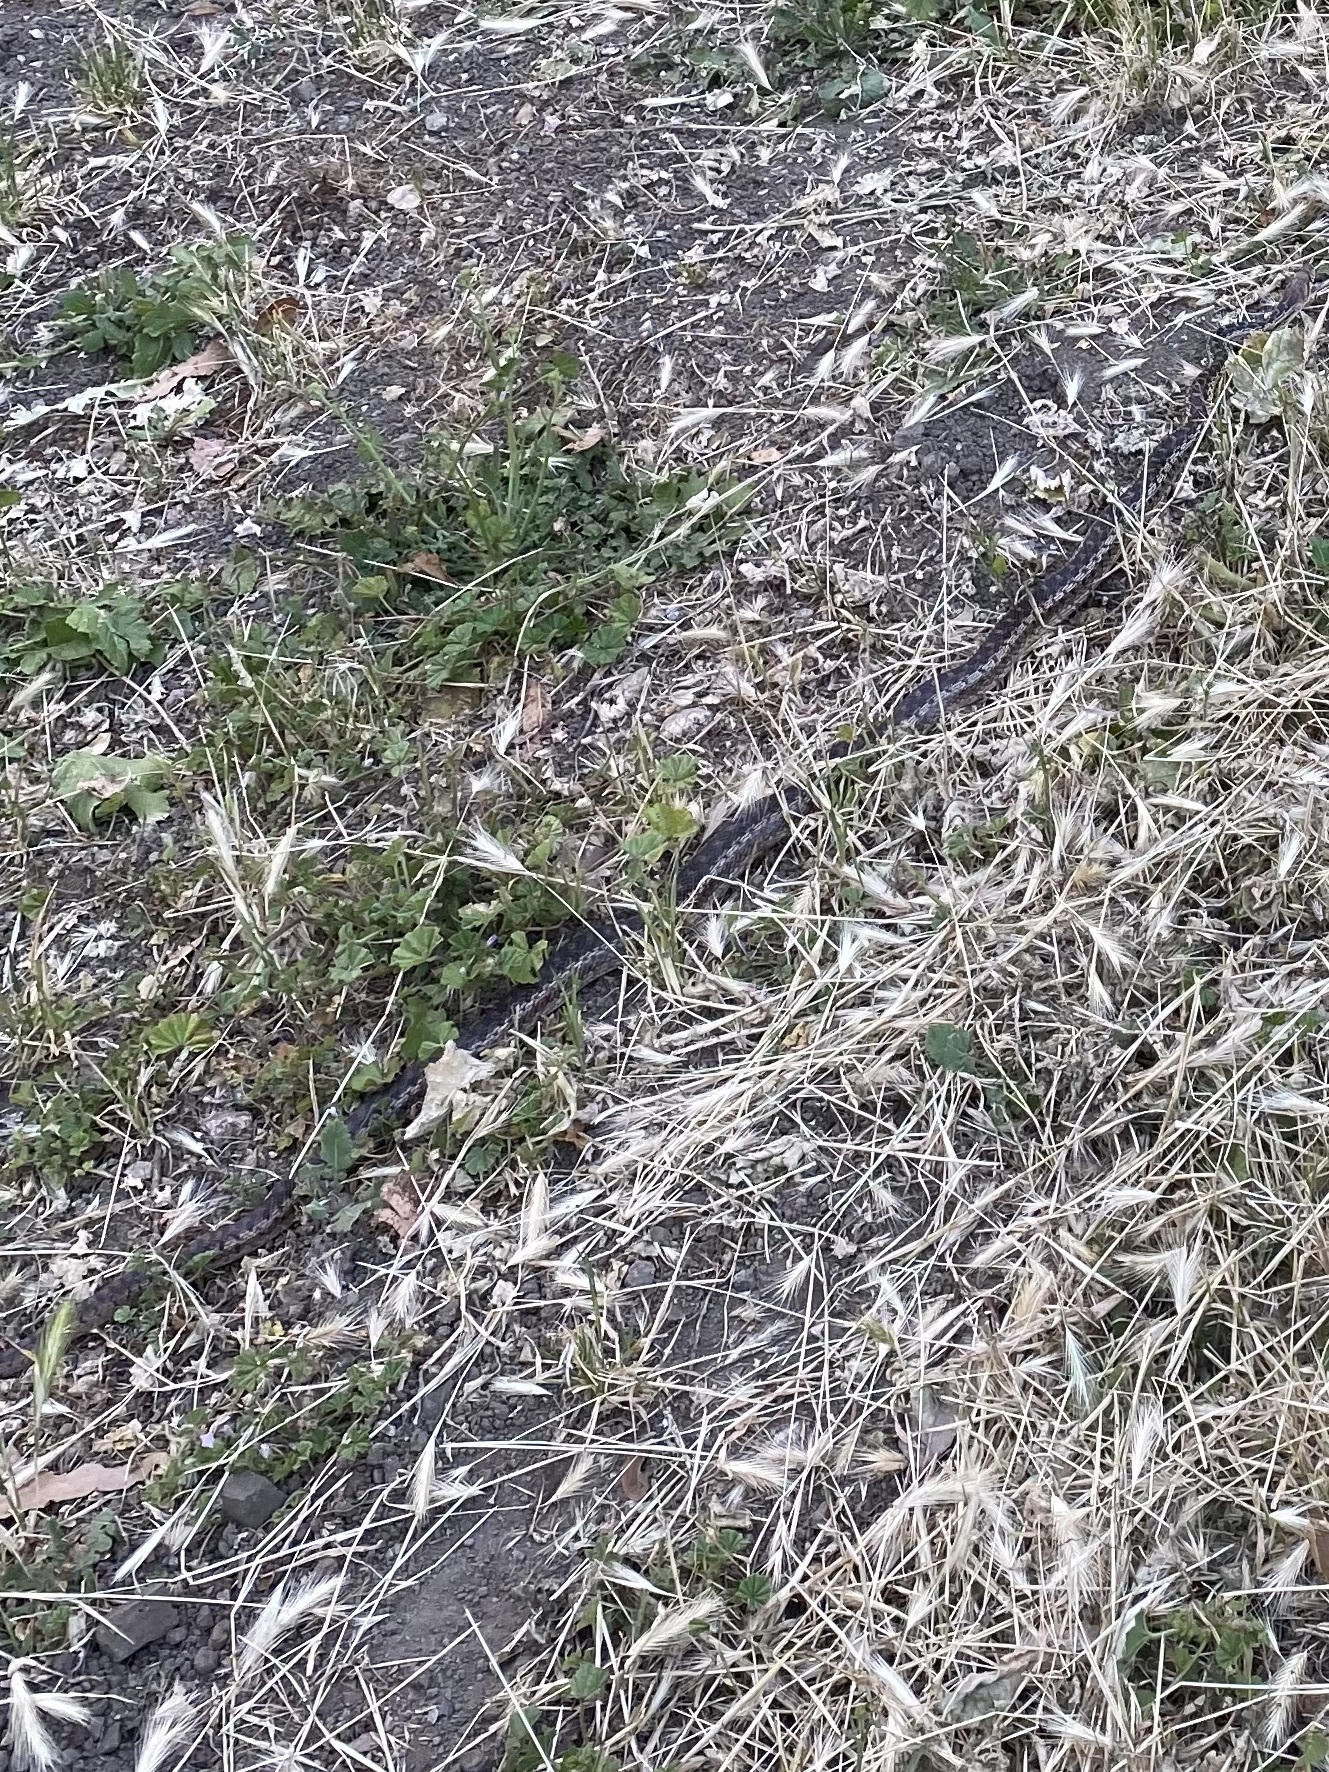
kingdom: Animalia
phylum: Chordata
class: Squamata
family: Colubridae
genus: Pituophis
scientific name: Pituophis catenifer
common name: Gopher snake
